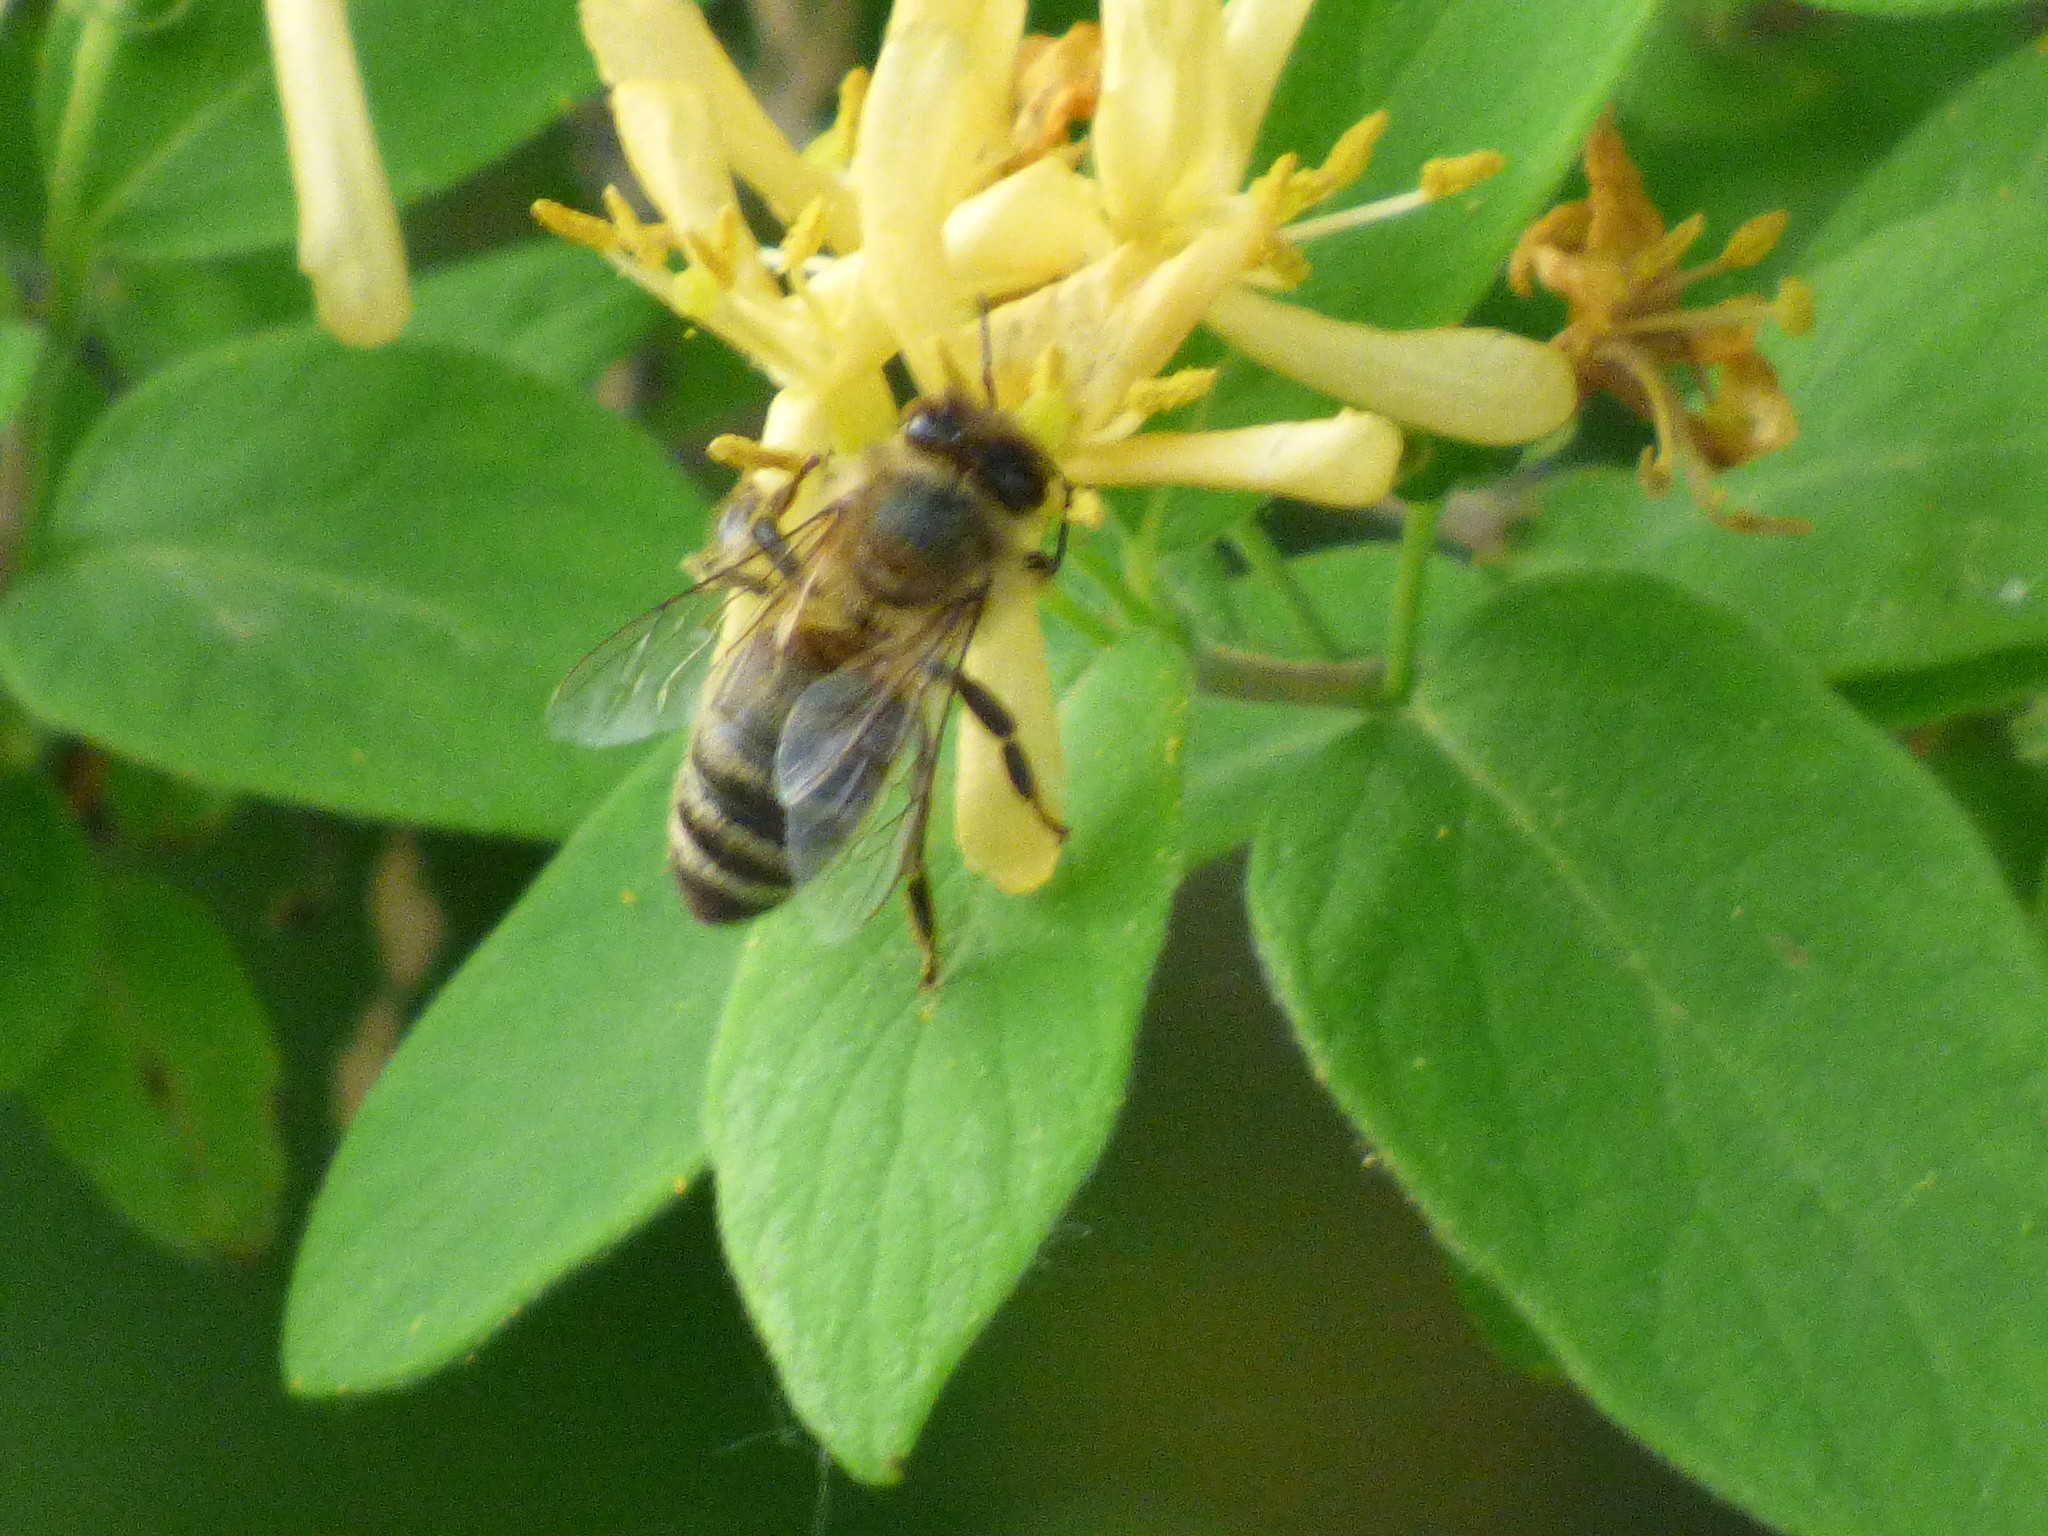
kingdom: Animalia
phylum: Arthropoda
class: Insecta
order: Hymenoptera
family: Apidae
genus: Apis
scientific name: Apis mellifera
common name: Honey bee
